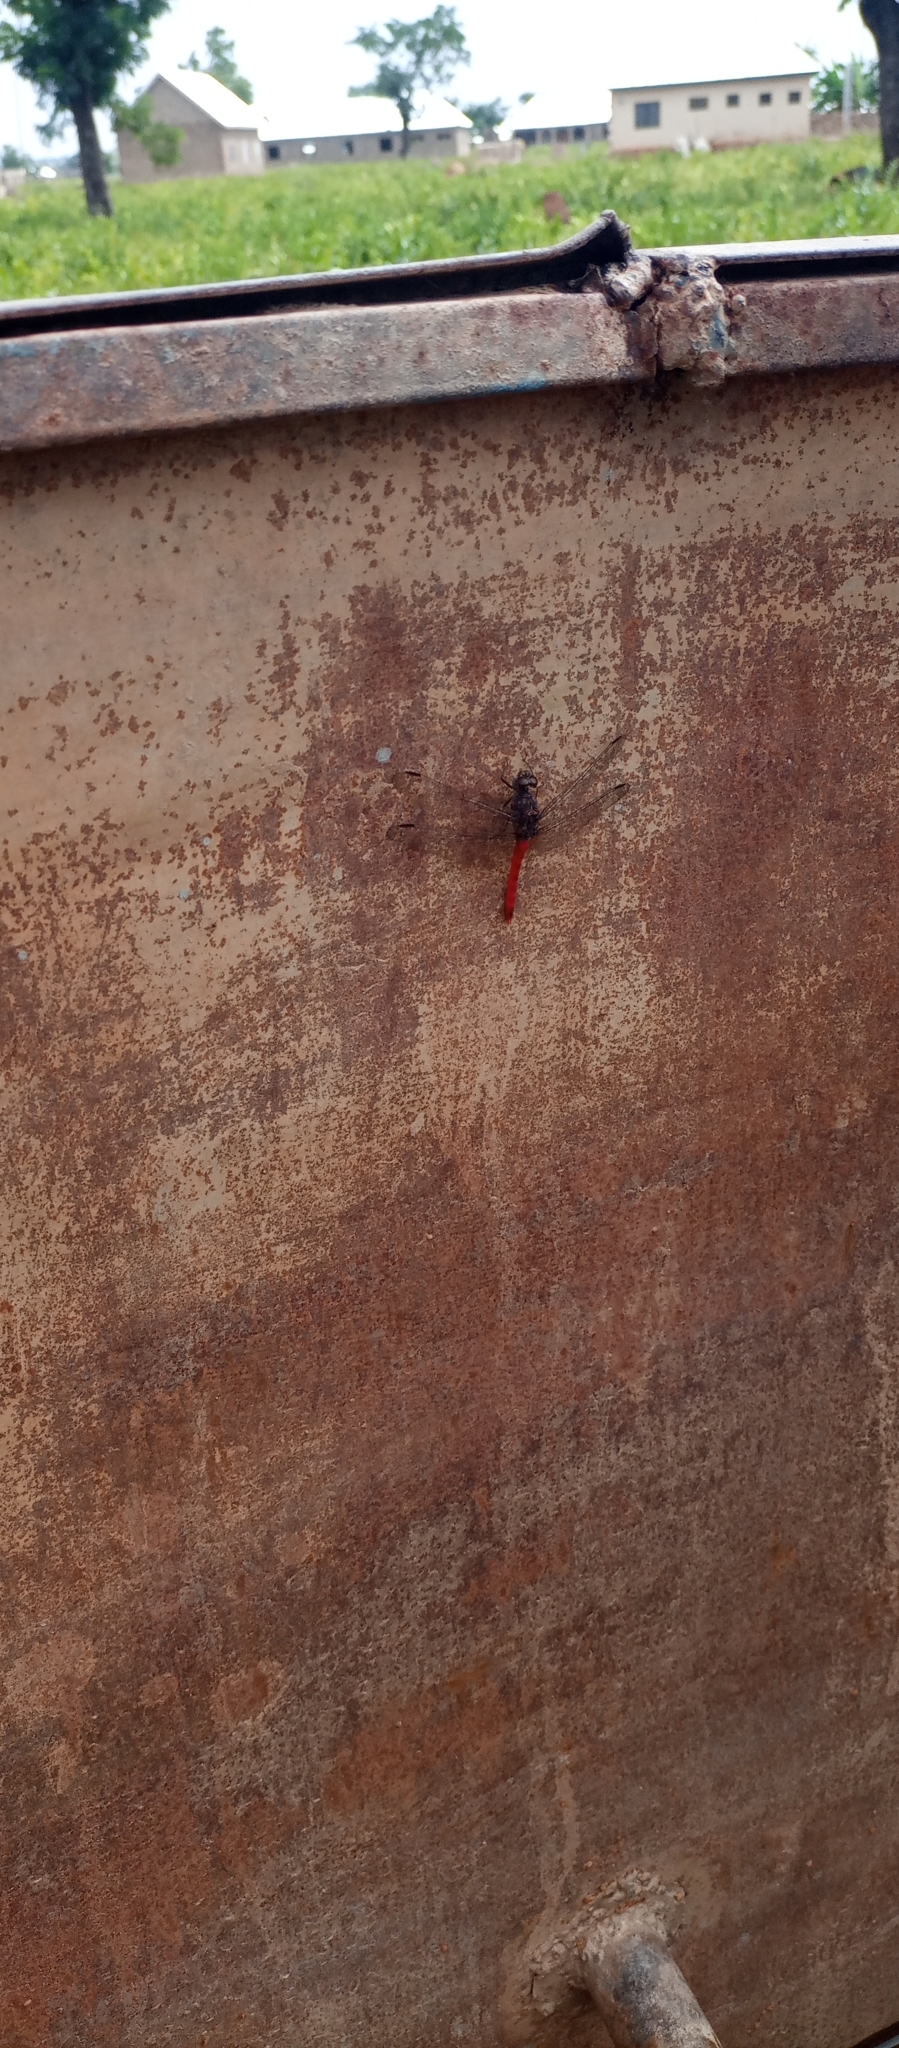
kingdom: Animalia
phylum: Arthropoda
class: Insecta
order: Odonata
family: Libellulidae
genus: Bradinopyga
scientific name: Bradinopyga strachani
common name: Red rock-dweller
